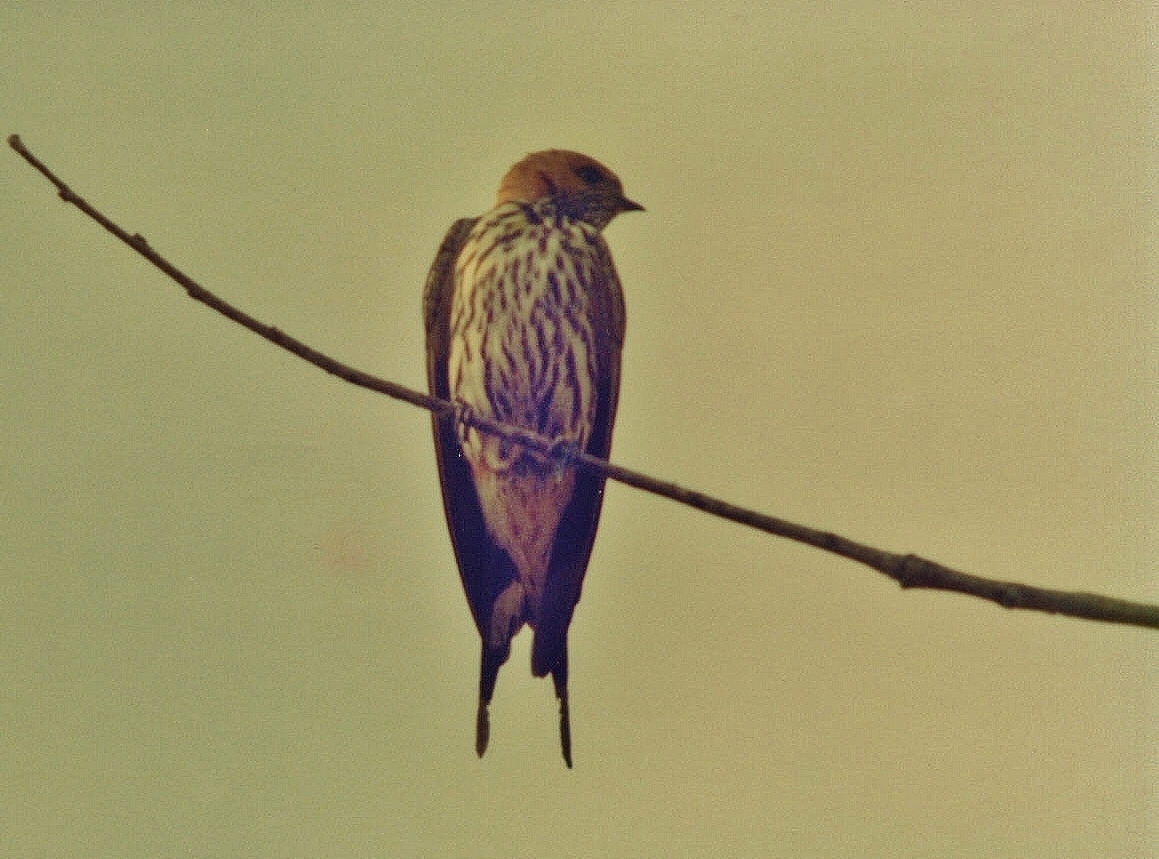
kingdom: Animalia
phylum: Chordata
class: Aves
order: Passeriformes
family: Hirundinidae
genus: Cecropis
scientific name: Cecropis abyssinica
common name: Lesser striped-swallow
